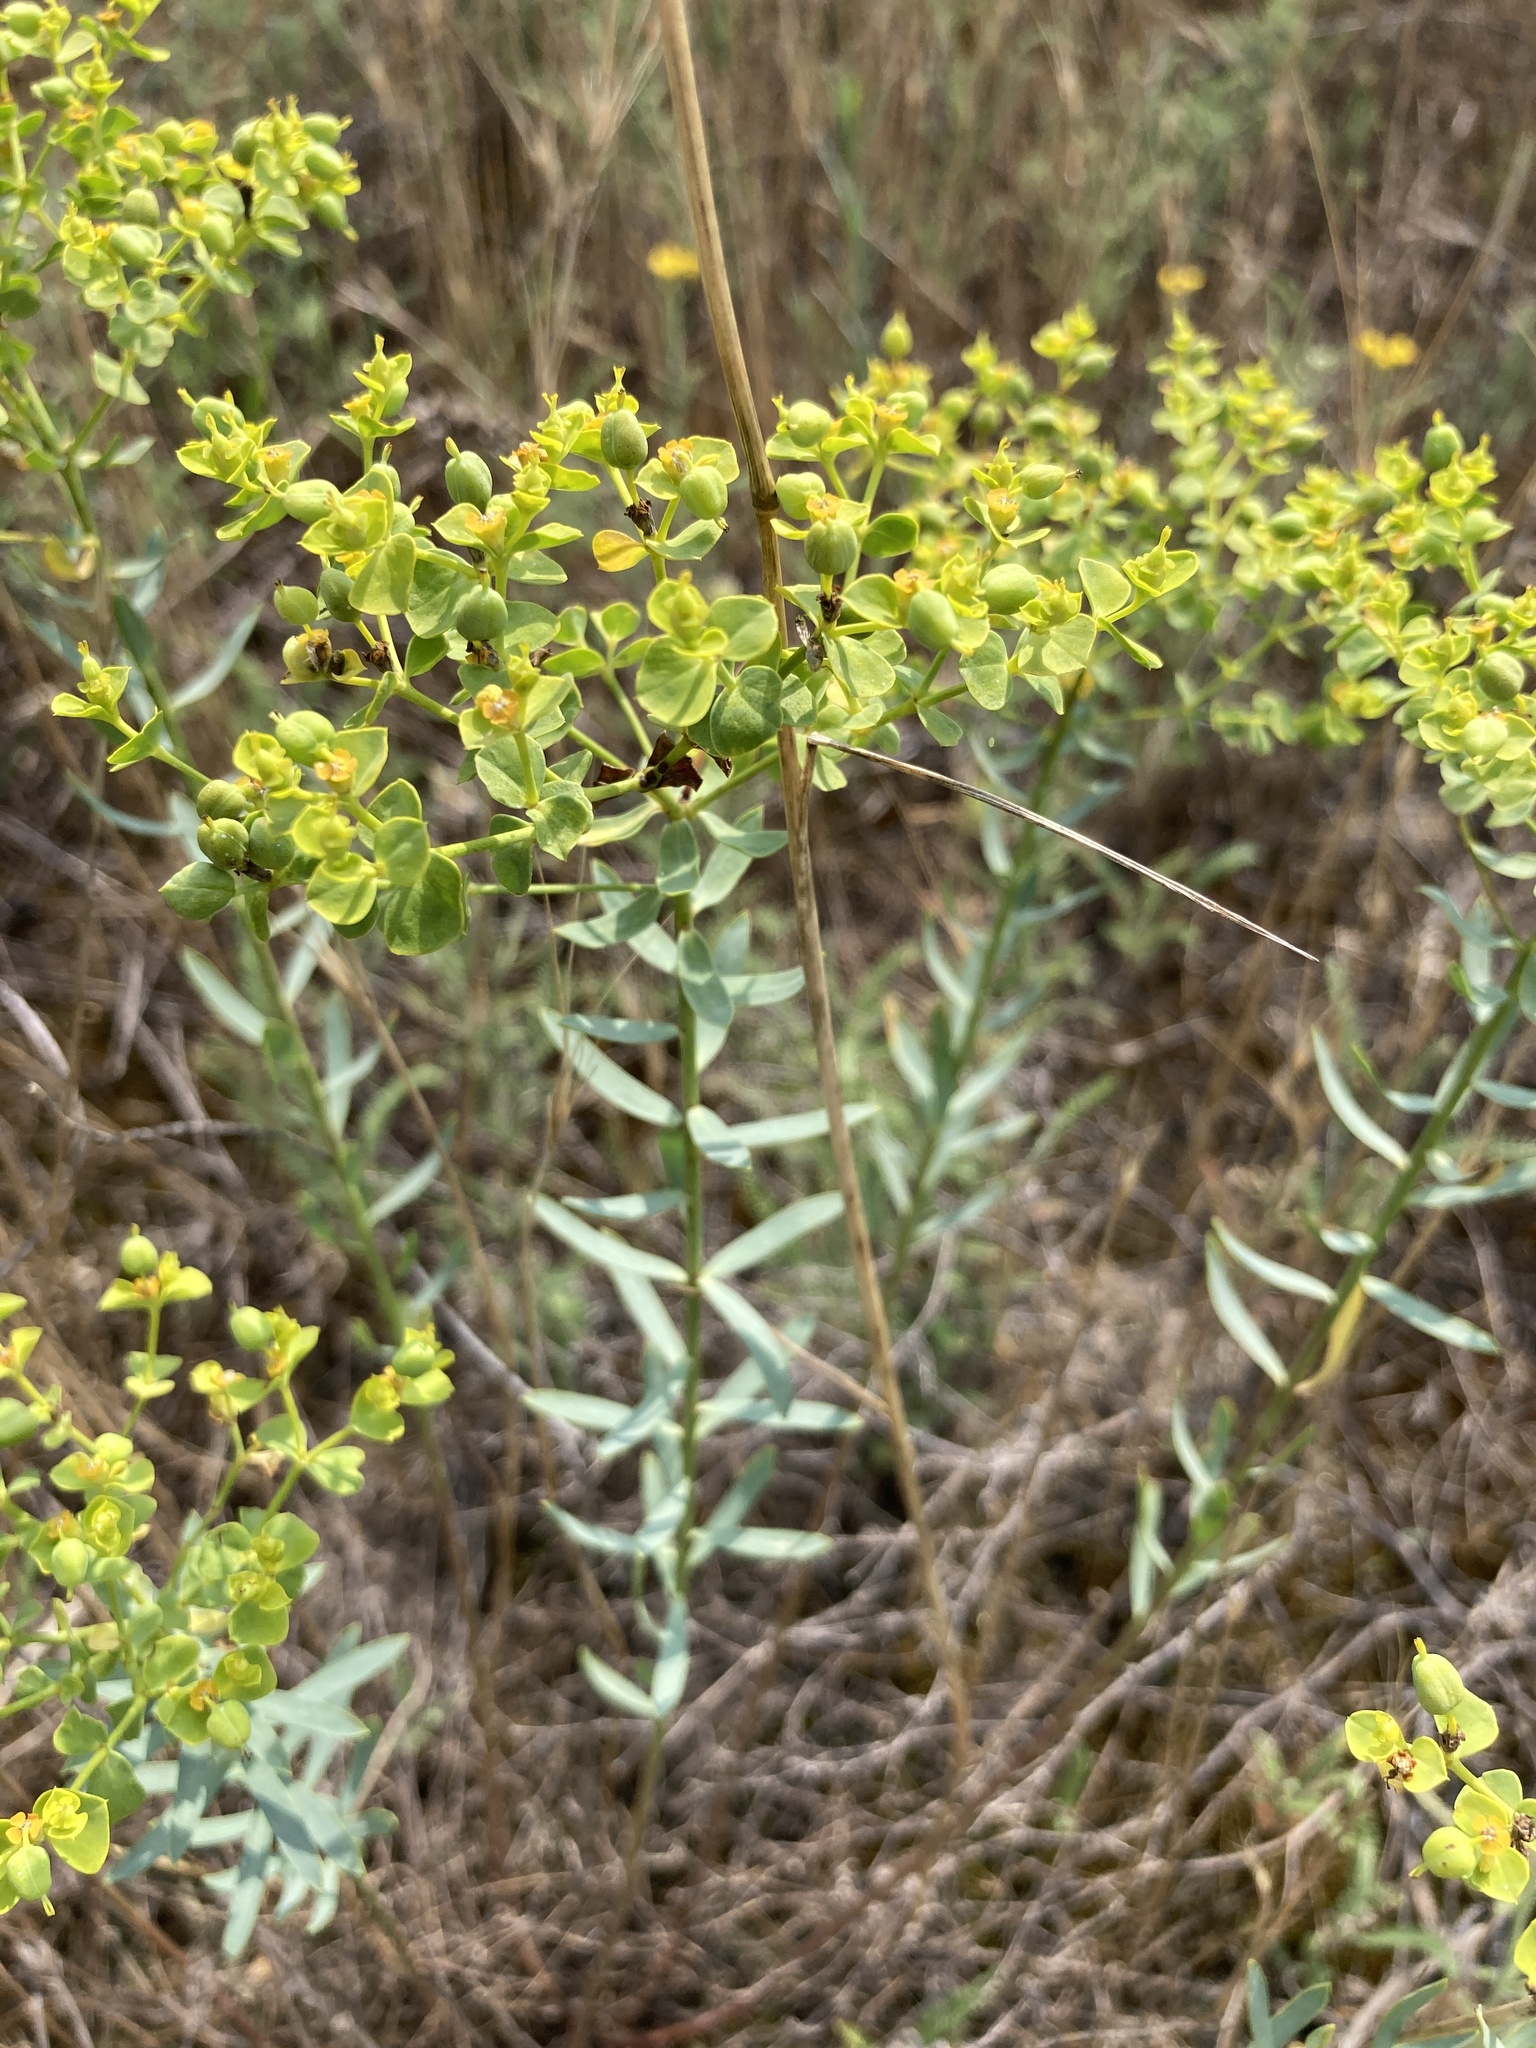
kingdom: Plantae
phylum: Tracheophyta
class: Magnoliopsida
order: Malpighiales
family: Euphorbiaceae
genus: Euphorbia
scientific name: Euphorbia seguieriana
